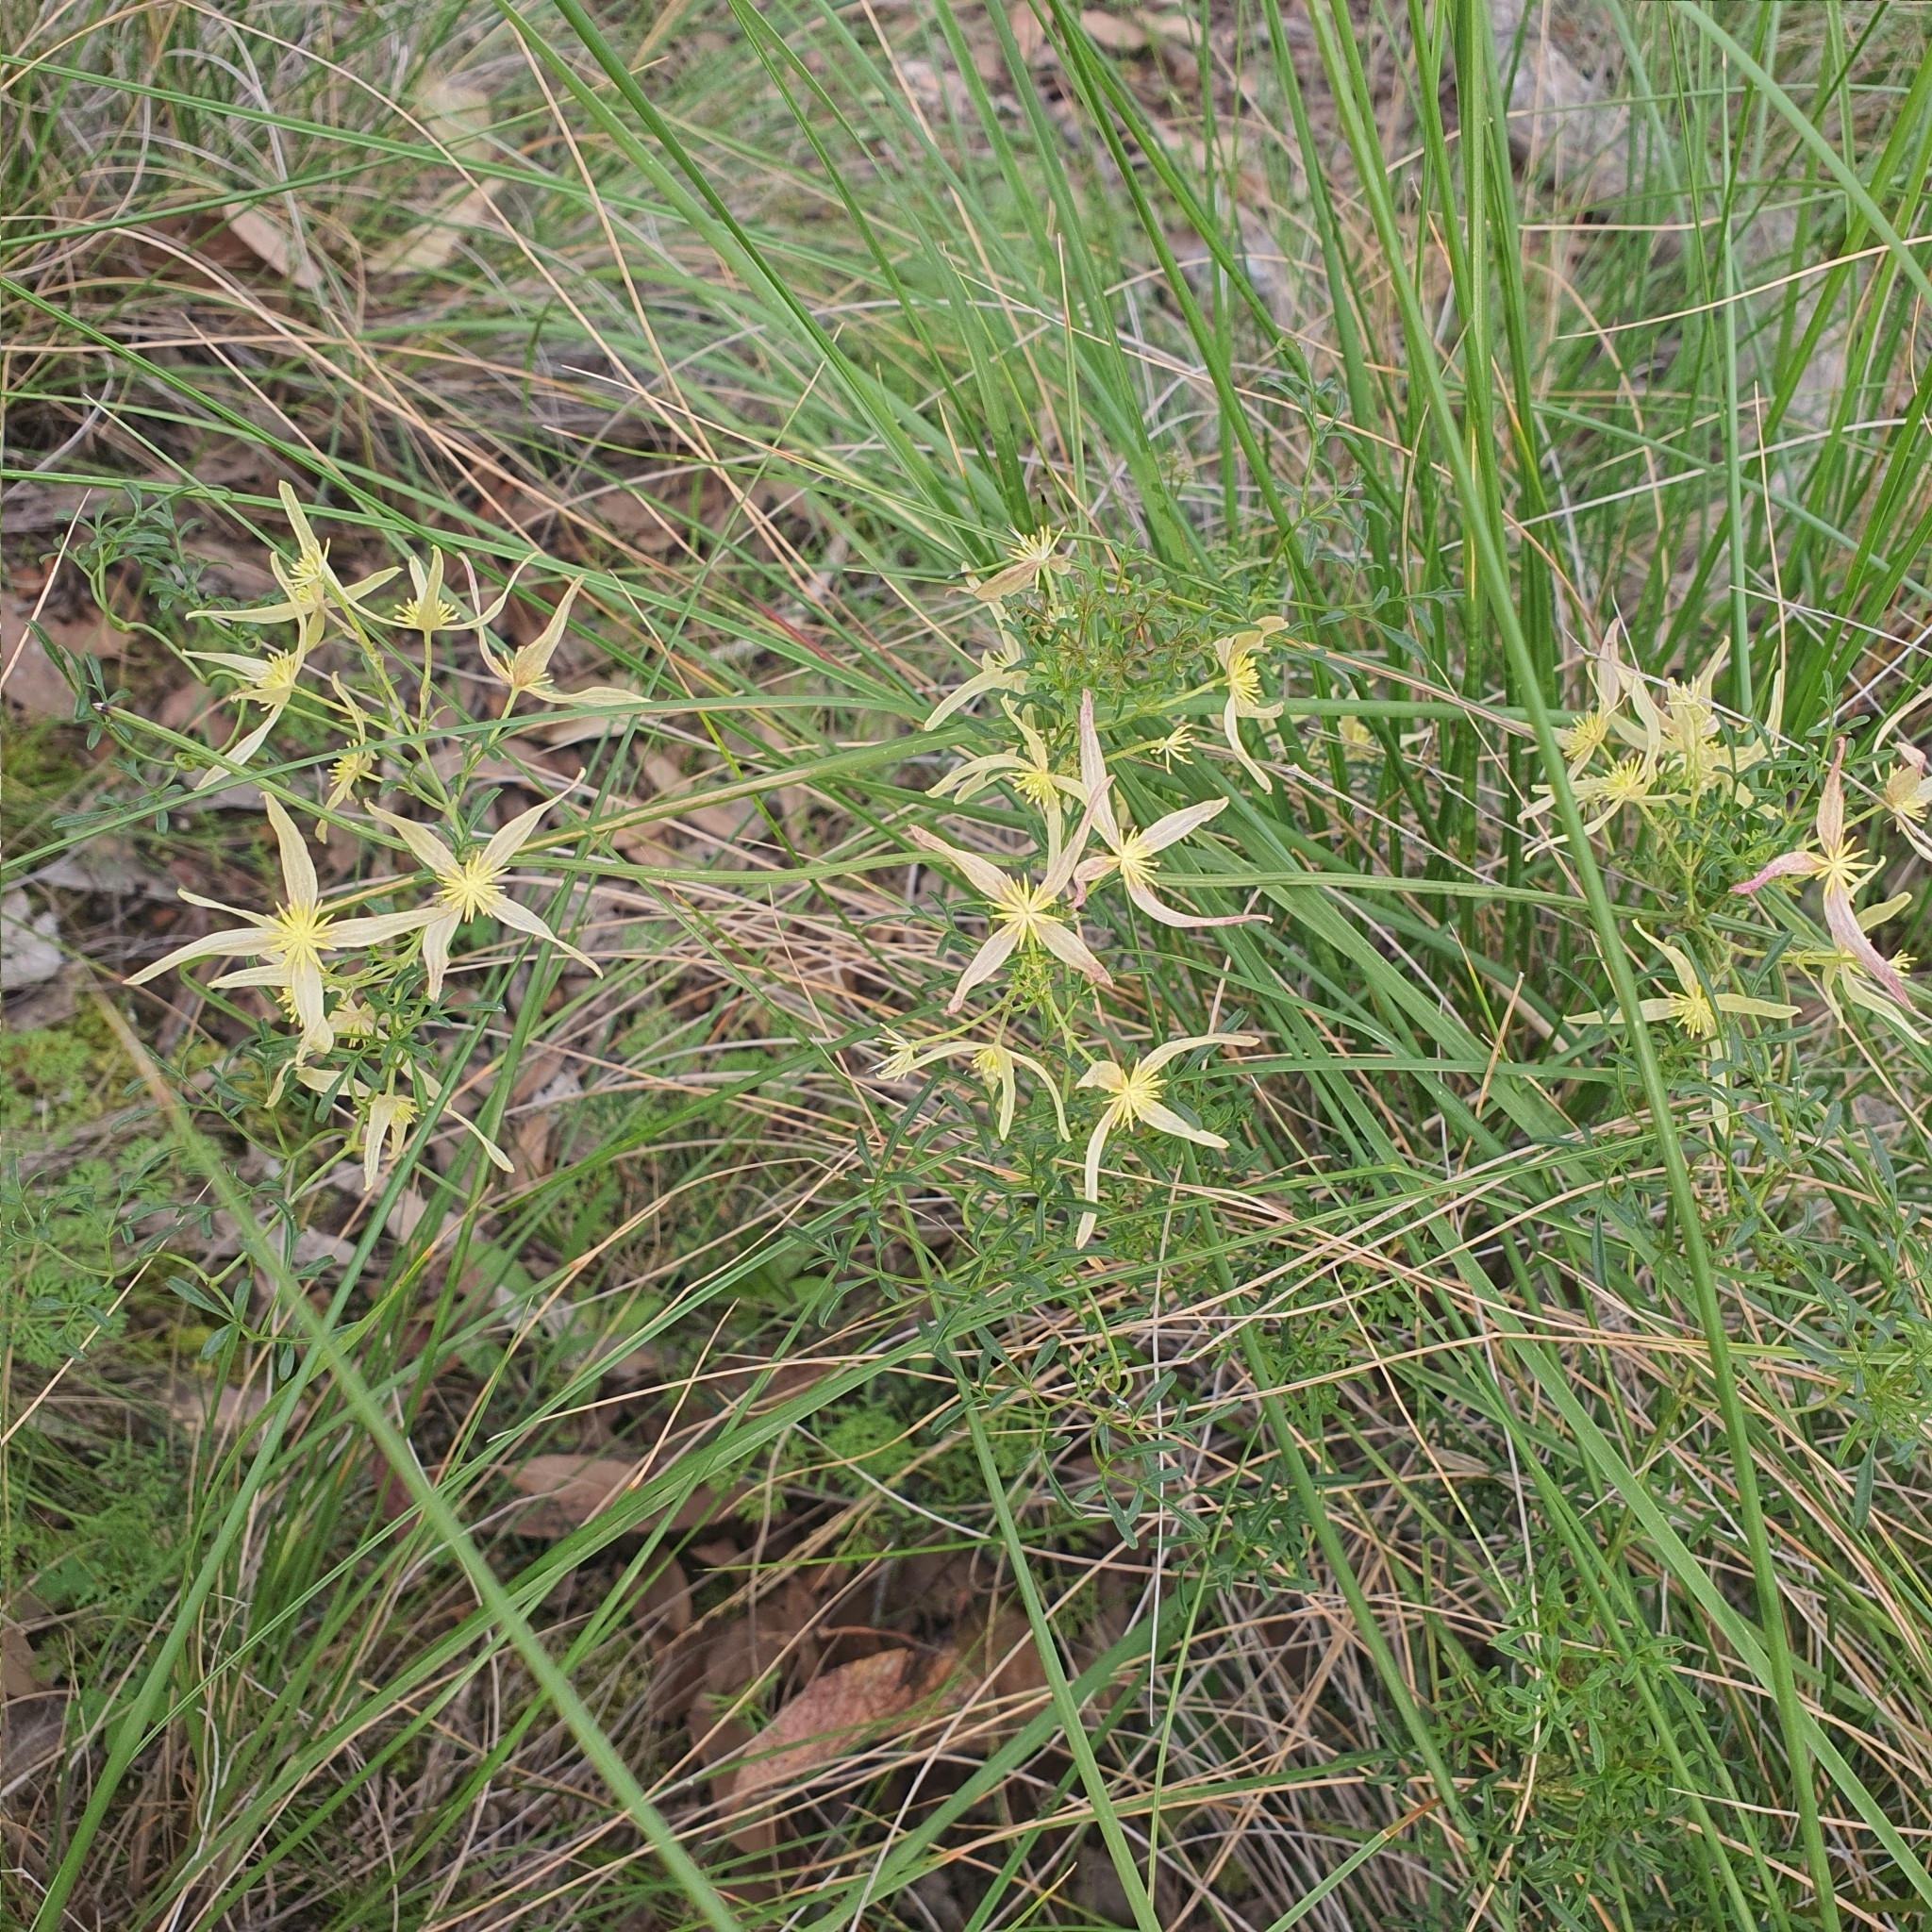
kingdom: Plantae
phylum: Tracheophyta
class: Magnoliopsida
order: Ranunculales
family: Ranunculaceae
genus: Clematis
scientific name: Clematis leptophylla
